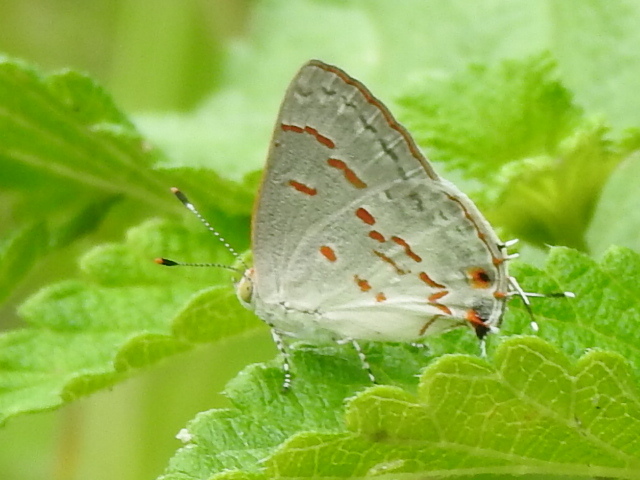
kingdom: Animalia
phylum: Arthropoda
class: Insecta
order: Lepidoptera
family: Lycaenidae
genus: Ministrymon
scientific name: Ministrymon clytie
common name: Clytie ministreak
